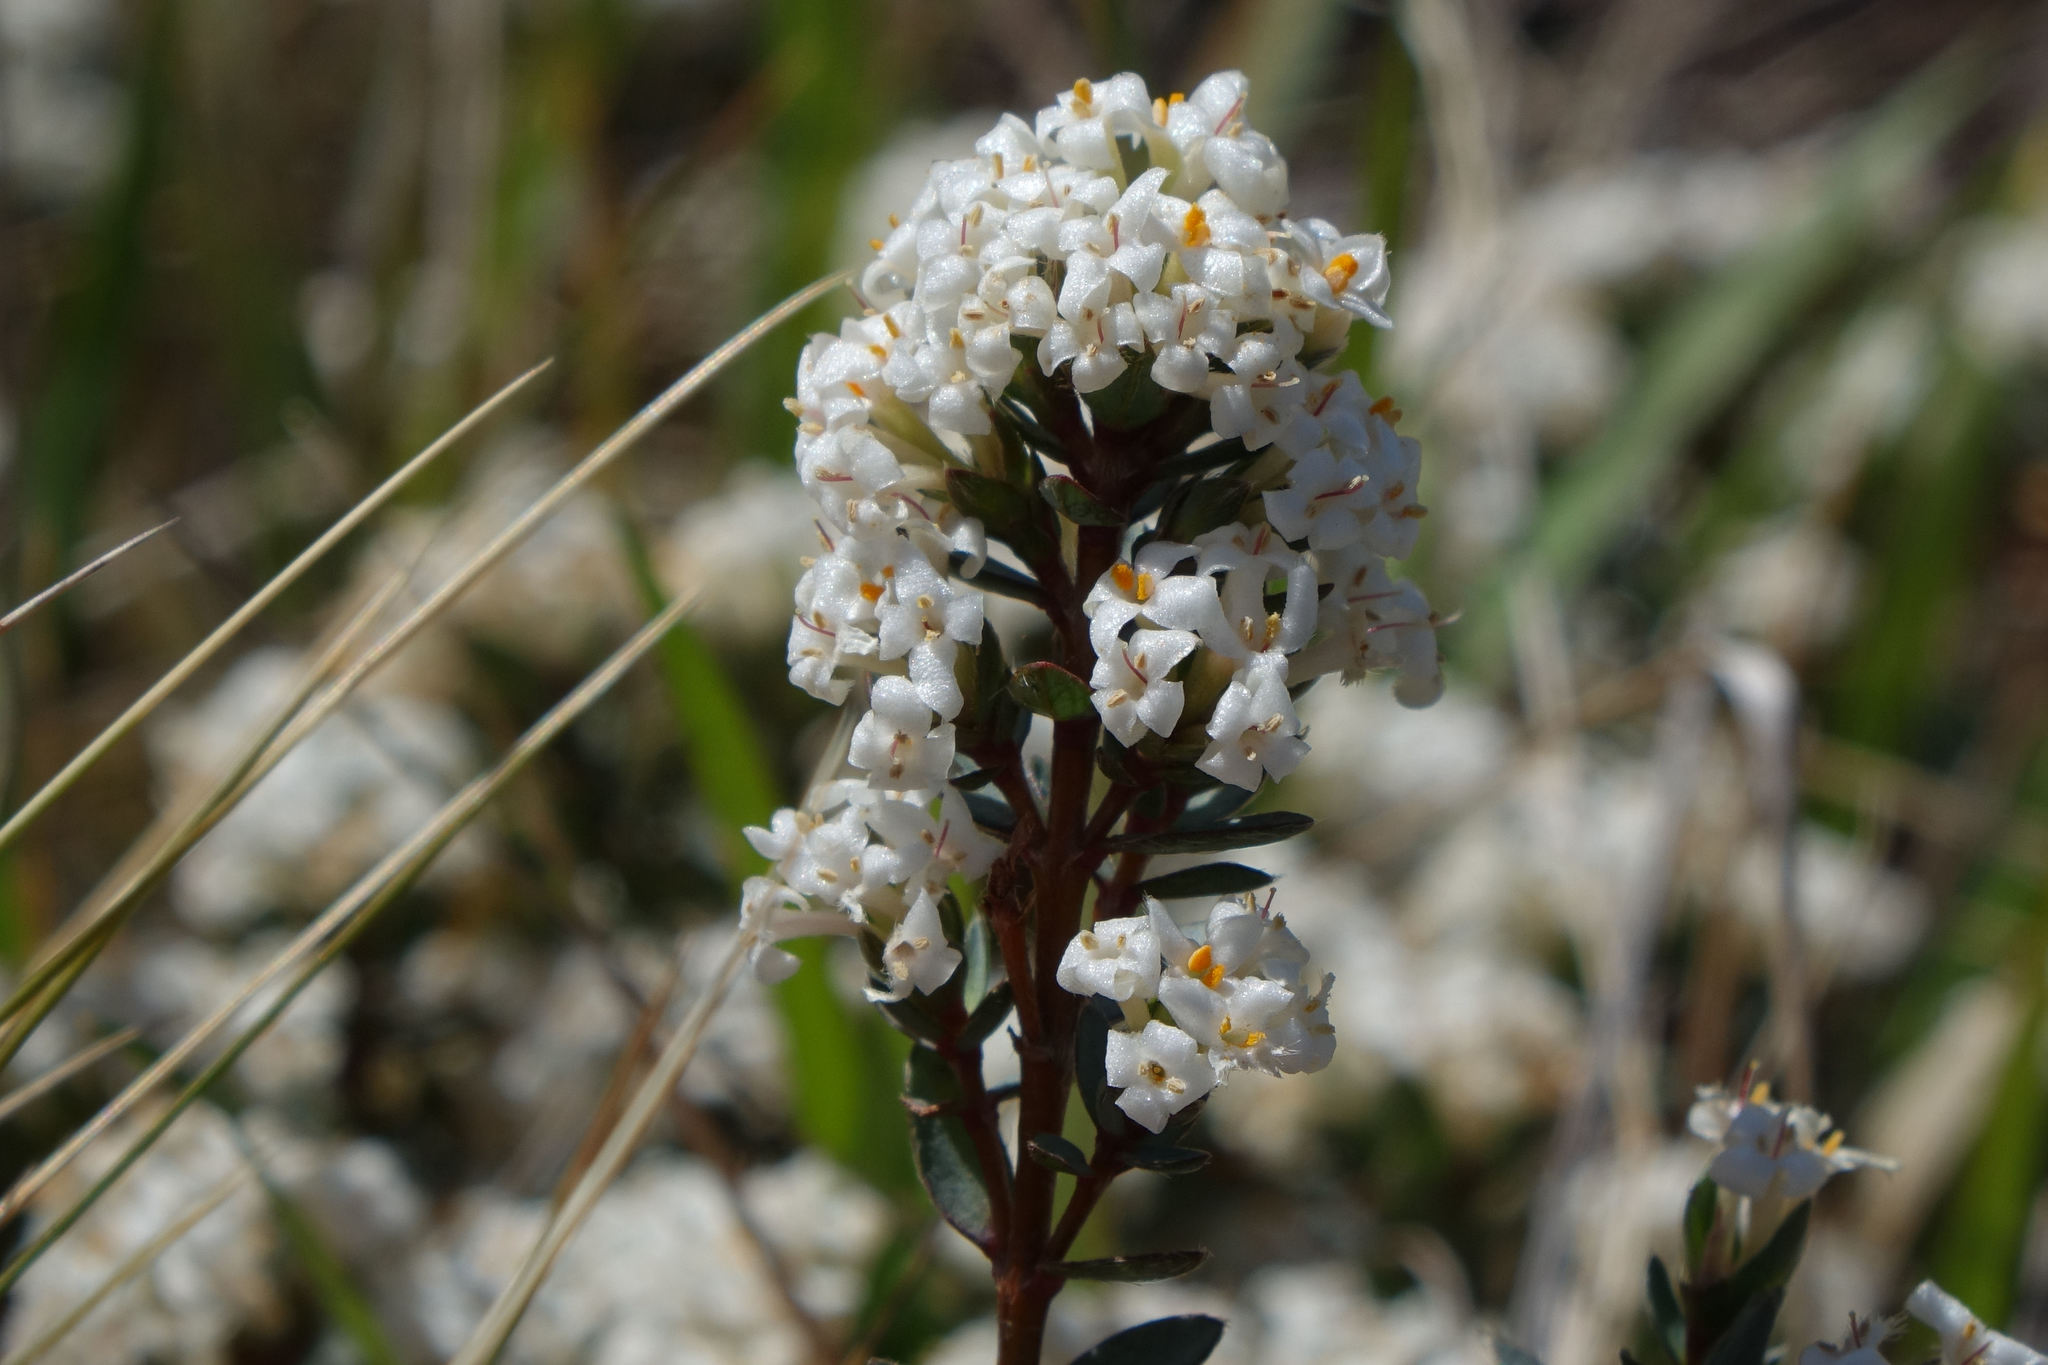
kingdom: Plantae
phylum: Tracheophyta
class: Magnoliopsida
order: Malvales
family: Thymelaeaceae
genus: Pimelea
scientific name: Pimelea oreophila
